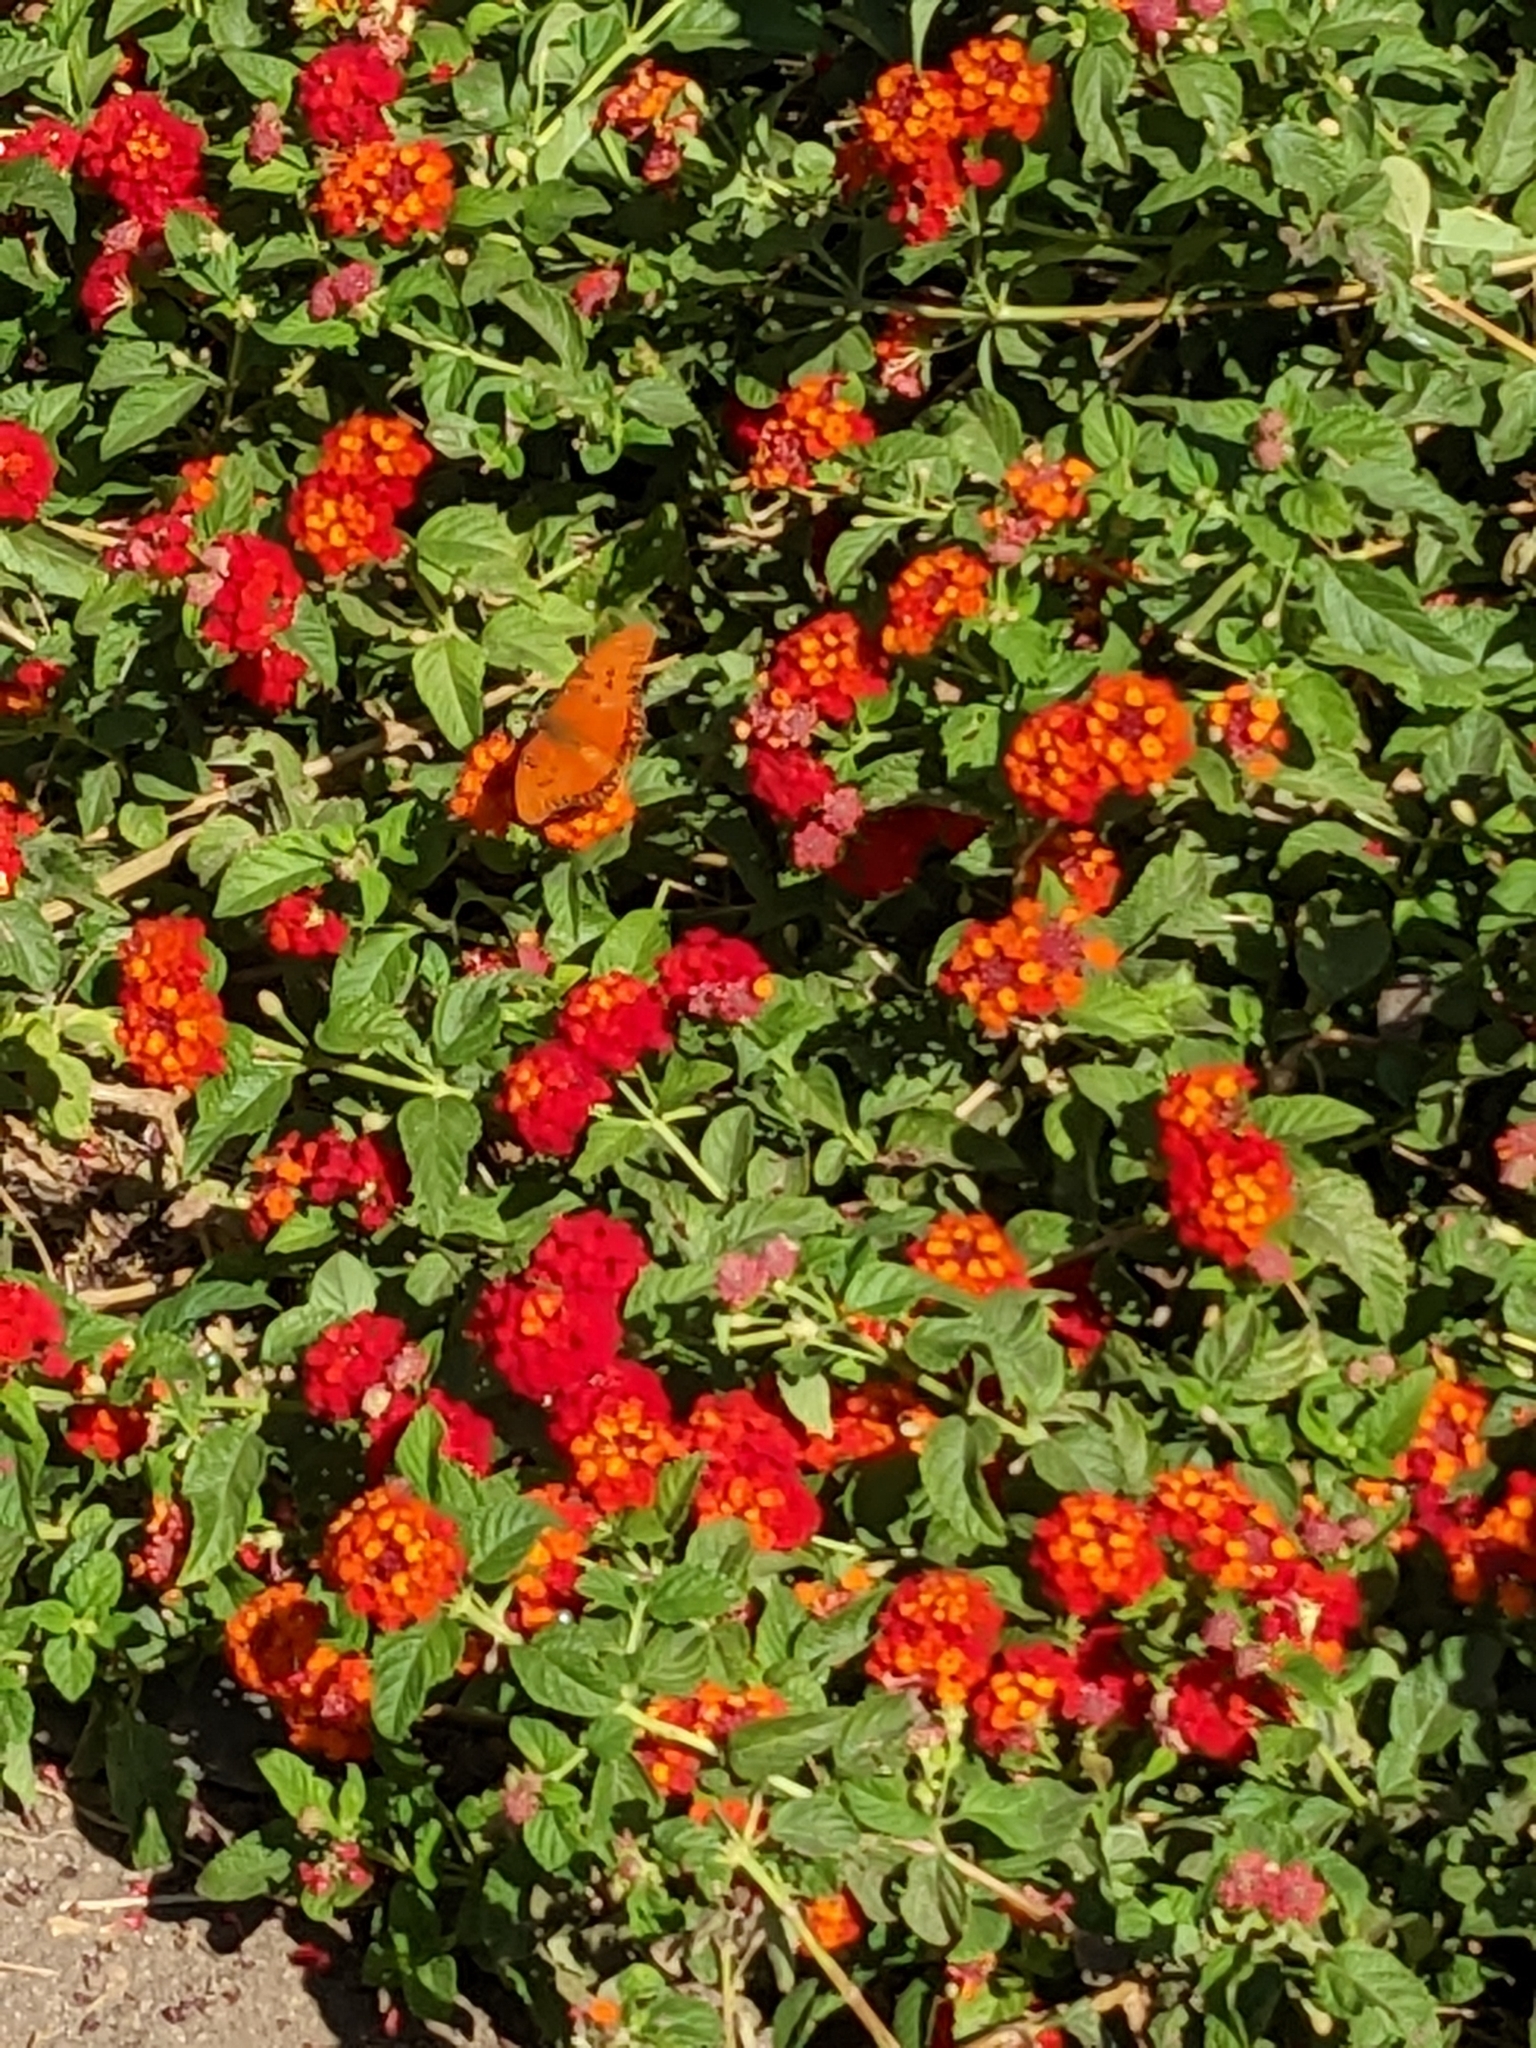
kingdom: Animalia
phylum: Arthropoda
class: Insecta
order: Lepidoptera
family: Nymphalidae
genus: Dione
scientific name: Dione vanillae
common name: Gulf fritillary
